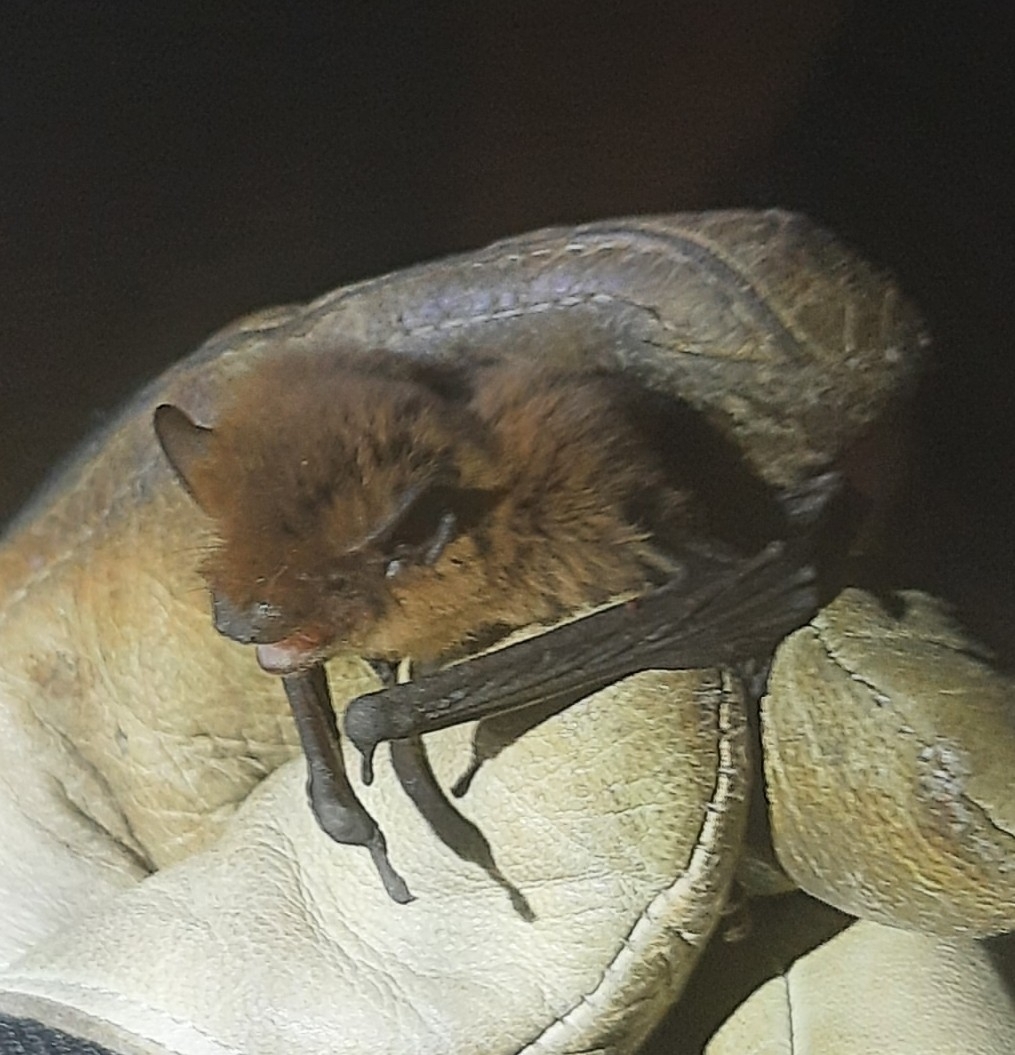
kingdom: Animalia
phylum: Chordata
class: Mammalia
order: Chiroptera
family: Vespertilionidae
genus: Pipistrellus
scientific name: Pipistrellus pygmaeus
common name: Soprano pipistrelle
